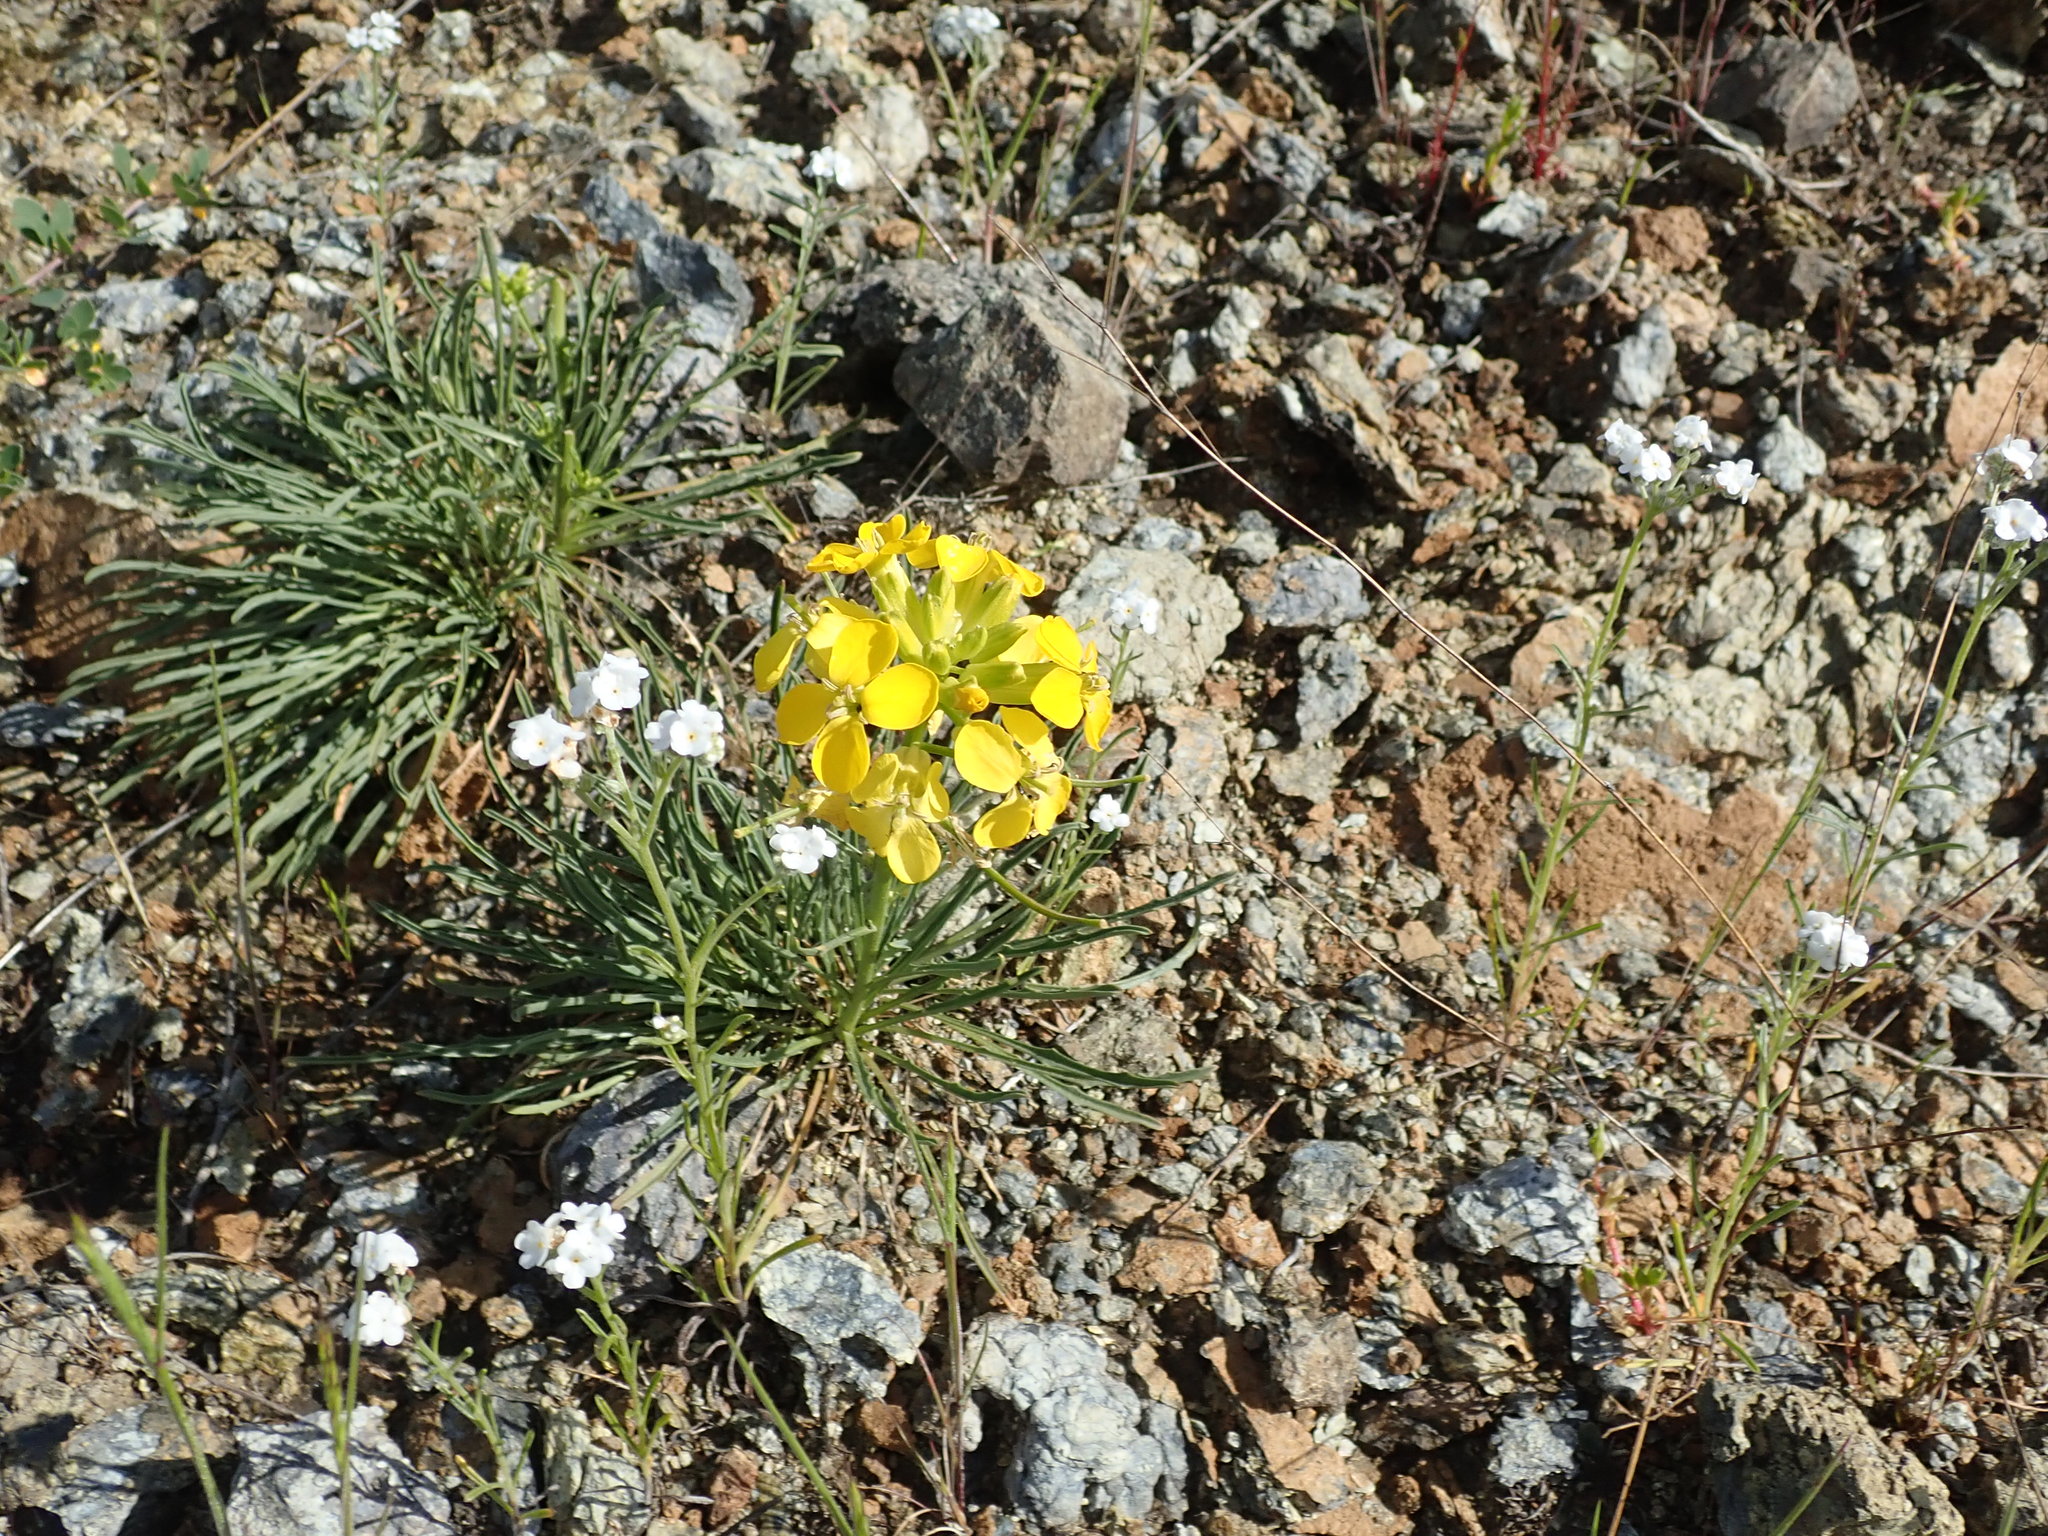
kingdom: Plantae
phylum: Tracheophyta
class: Magnoliopsida
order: Brassicales
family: Brassicaceae
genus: Erysimum
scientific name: Erysimum franciscanum
